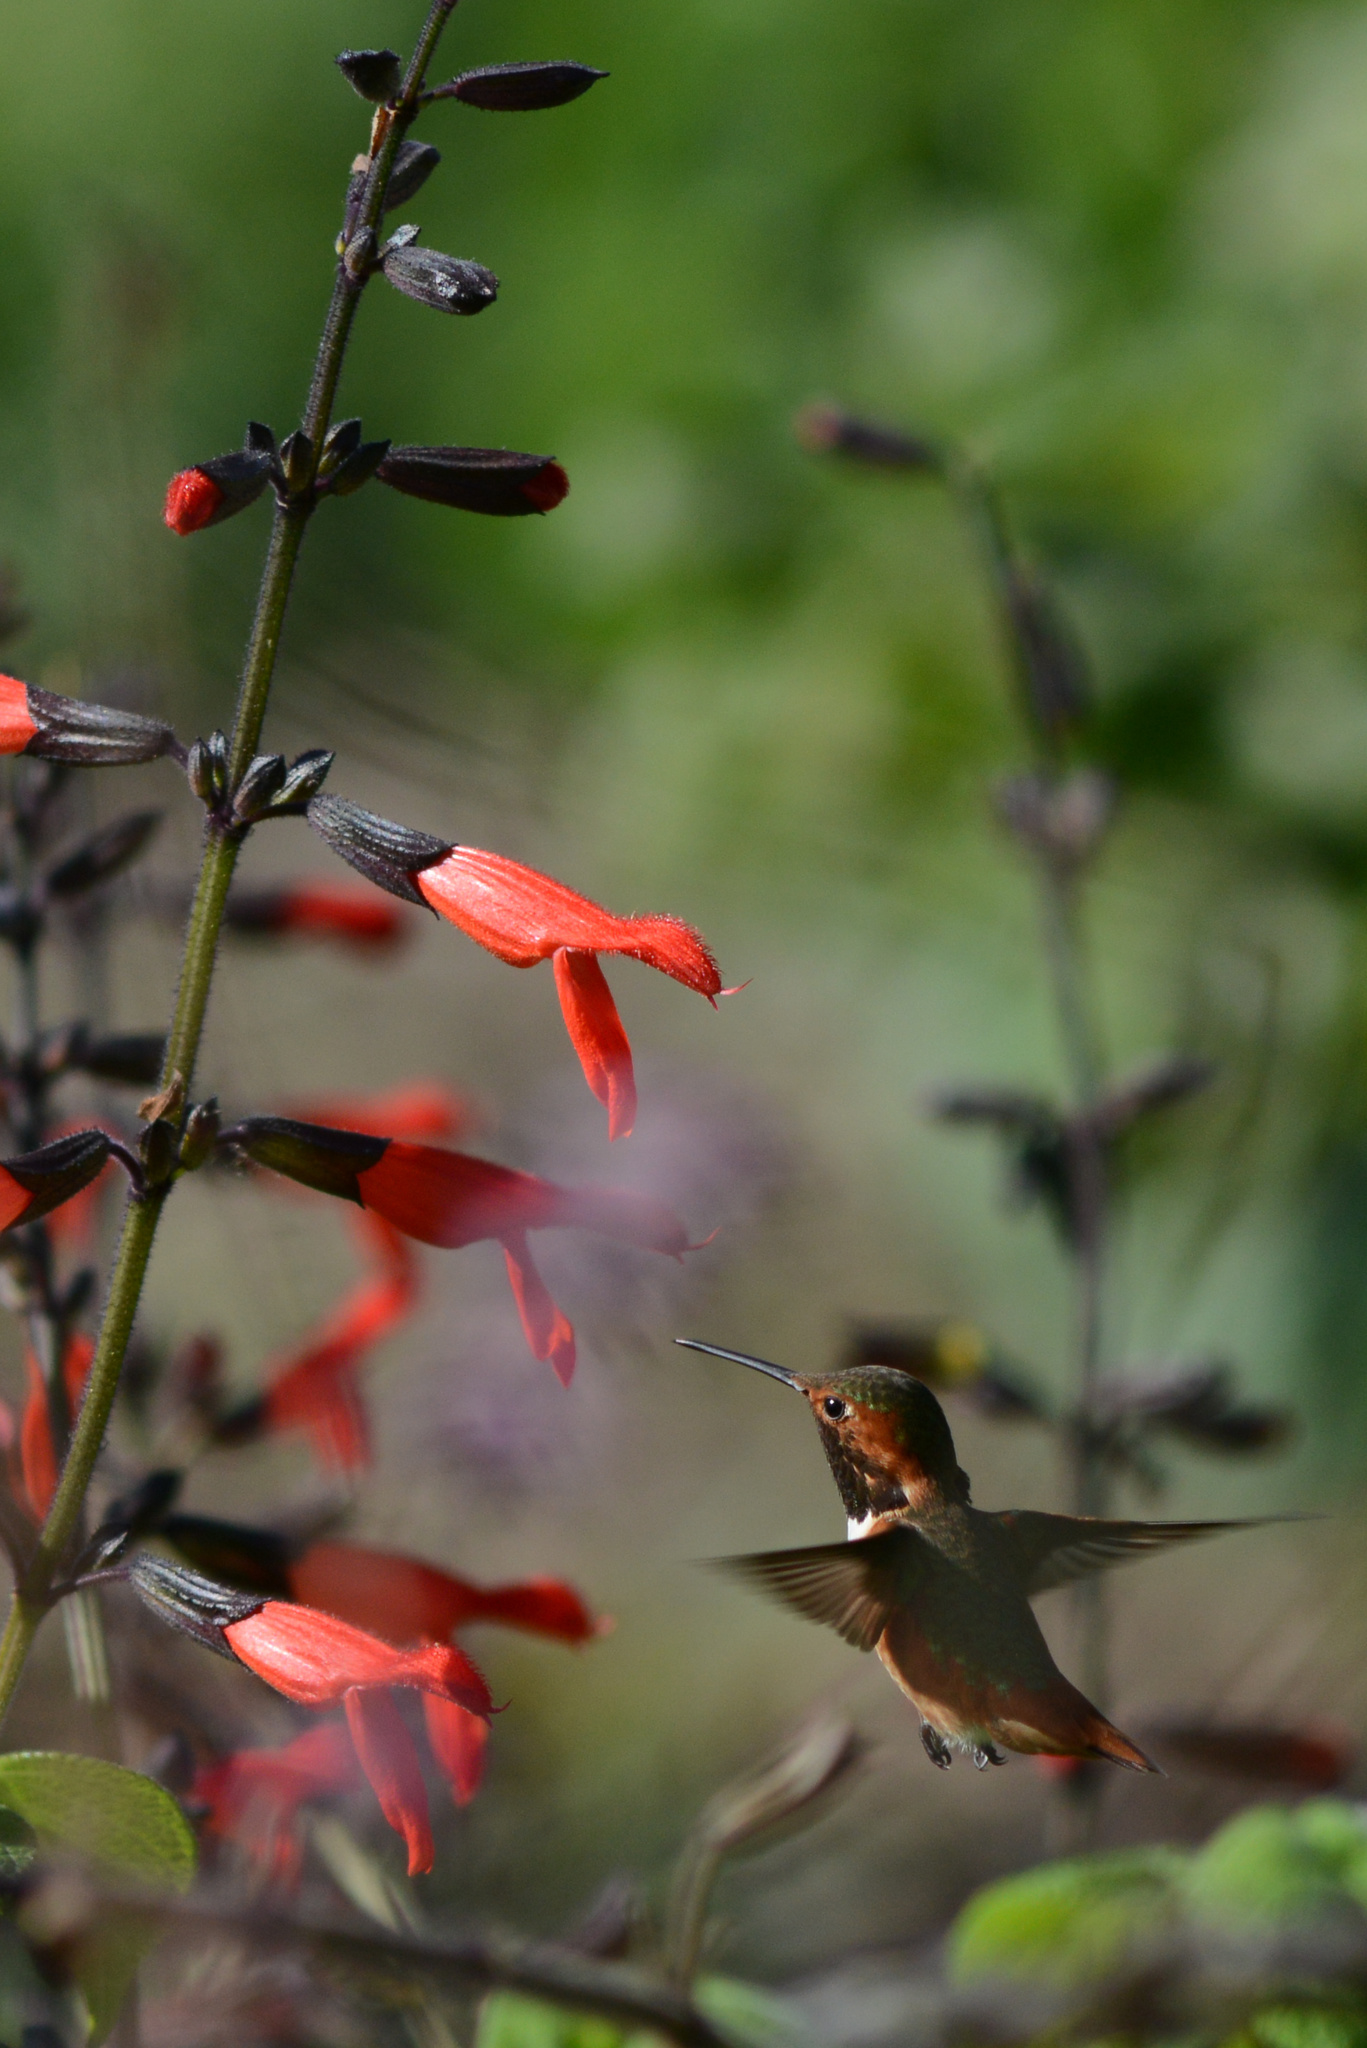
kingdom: Animalia
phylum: Chordata
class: Aves
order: Apodiformes
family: Trochilidae
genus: Selasphorus
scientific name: Selasphorus sasin
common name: Allen's hummingbird
